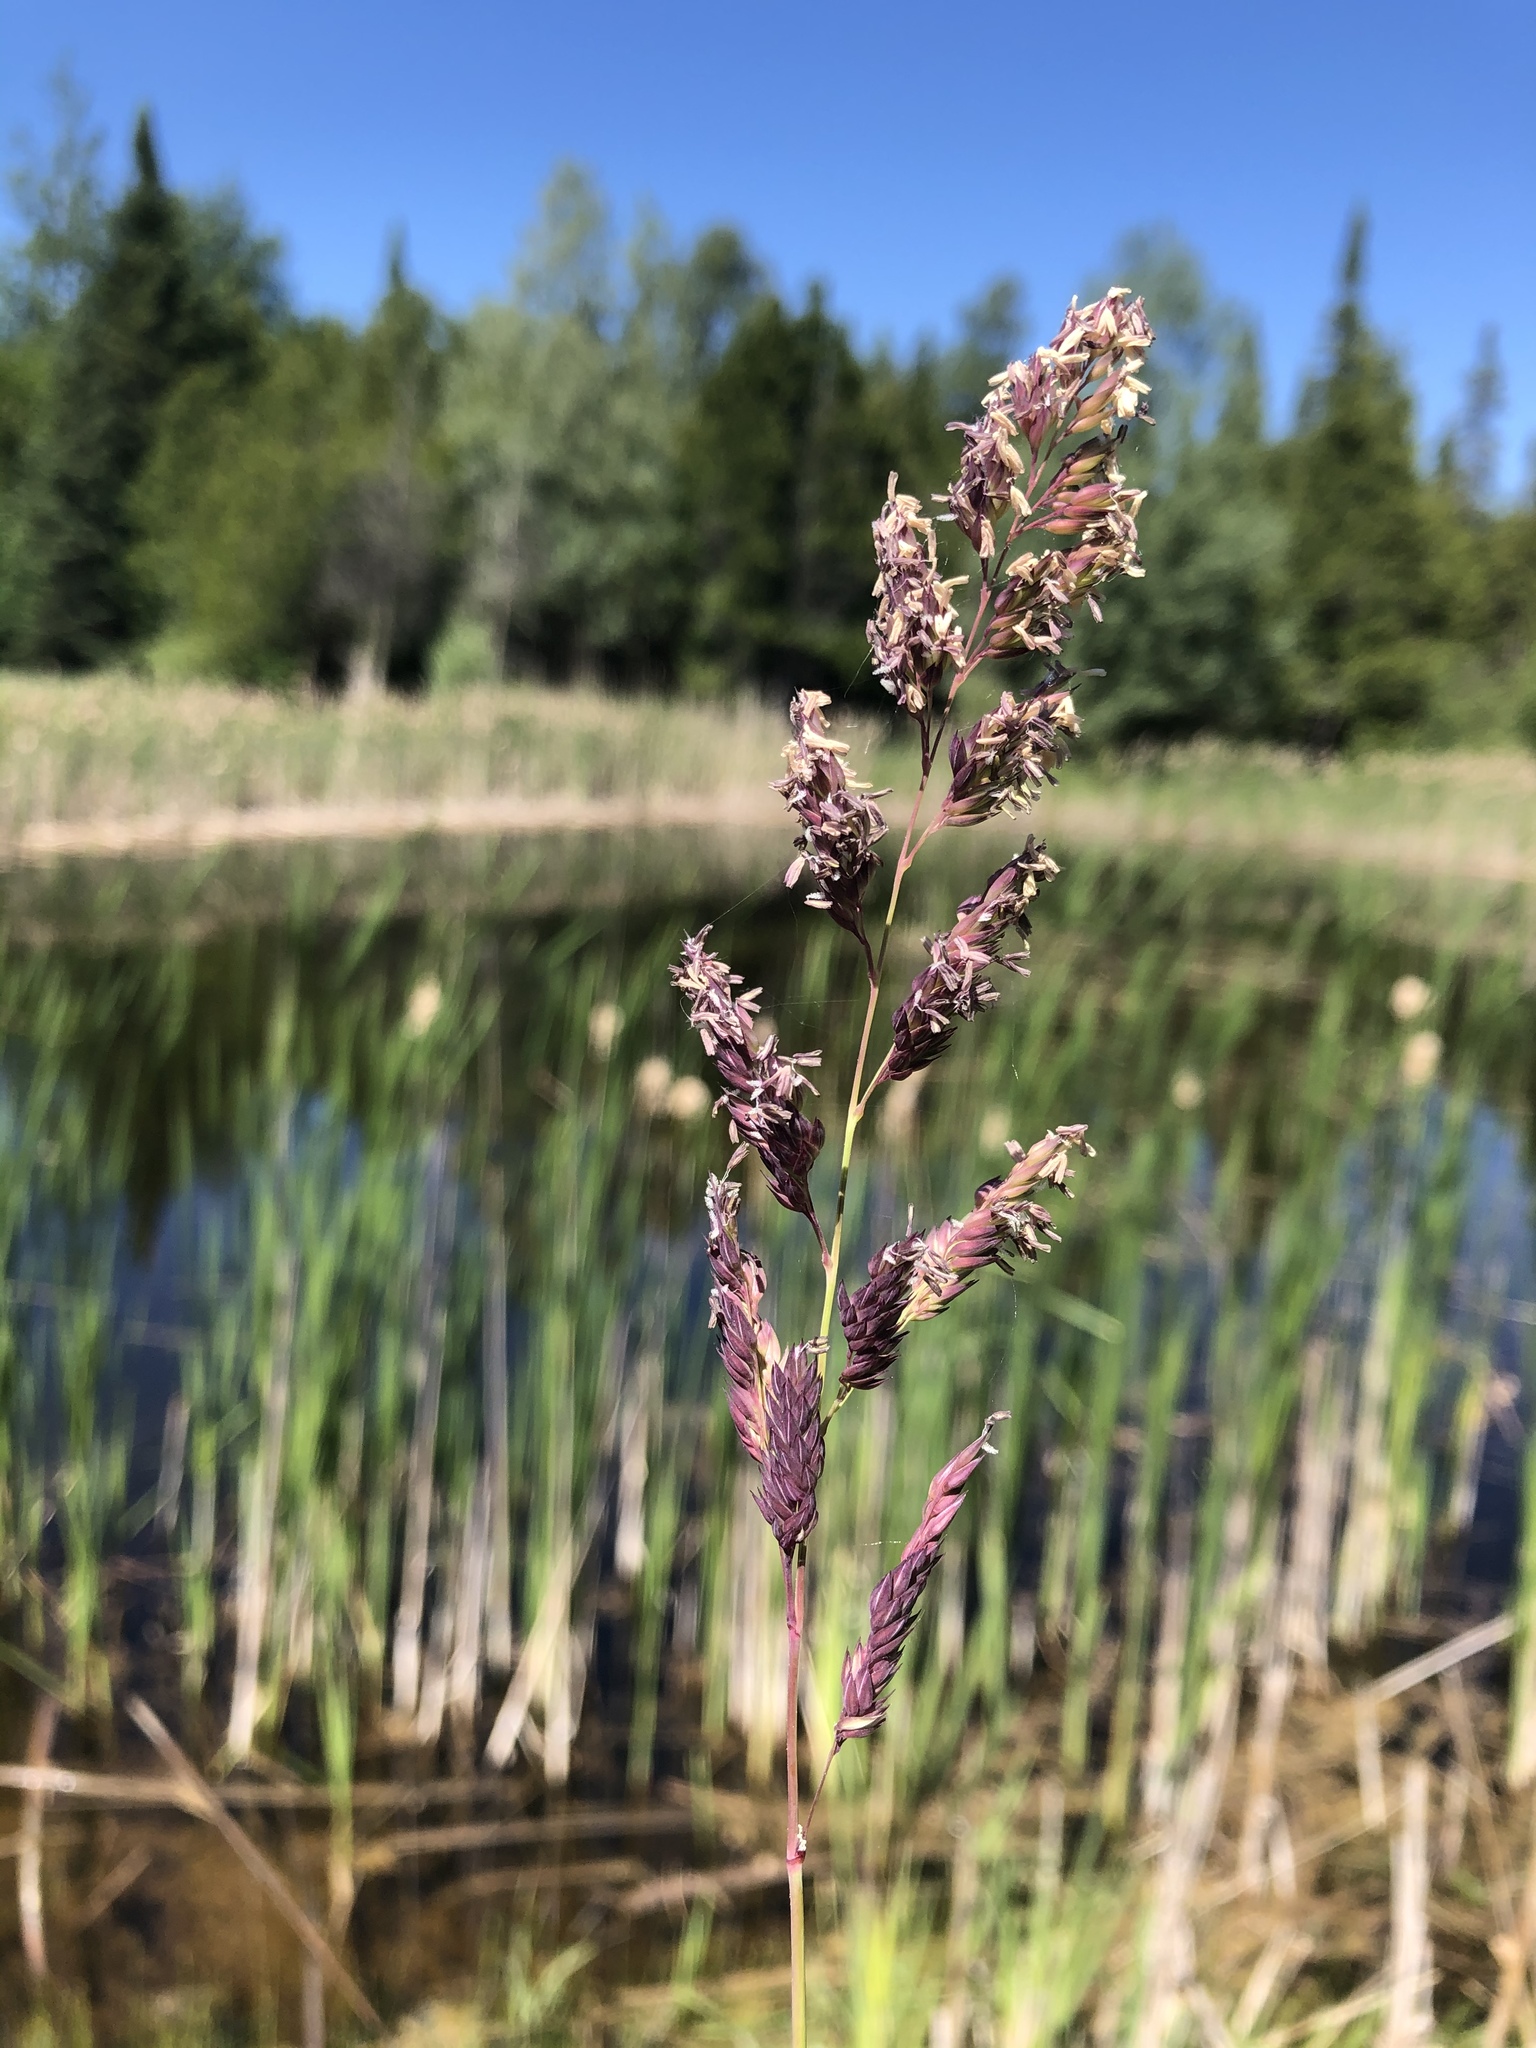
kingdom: Plantae
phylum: Tracheophyta
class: Liliopsida
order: Poales
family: Poaceae
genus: Phalaris
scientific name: Phalaris arundinacea
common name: Reed canary-grass
